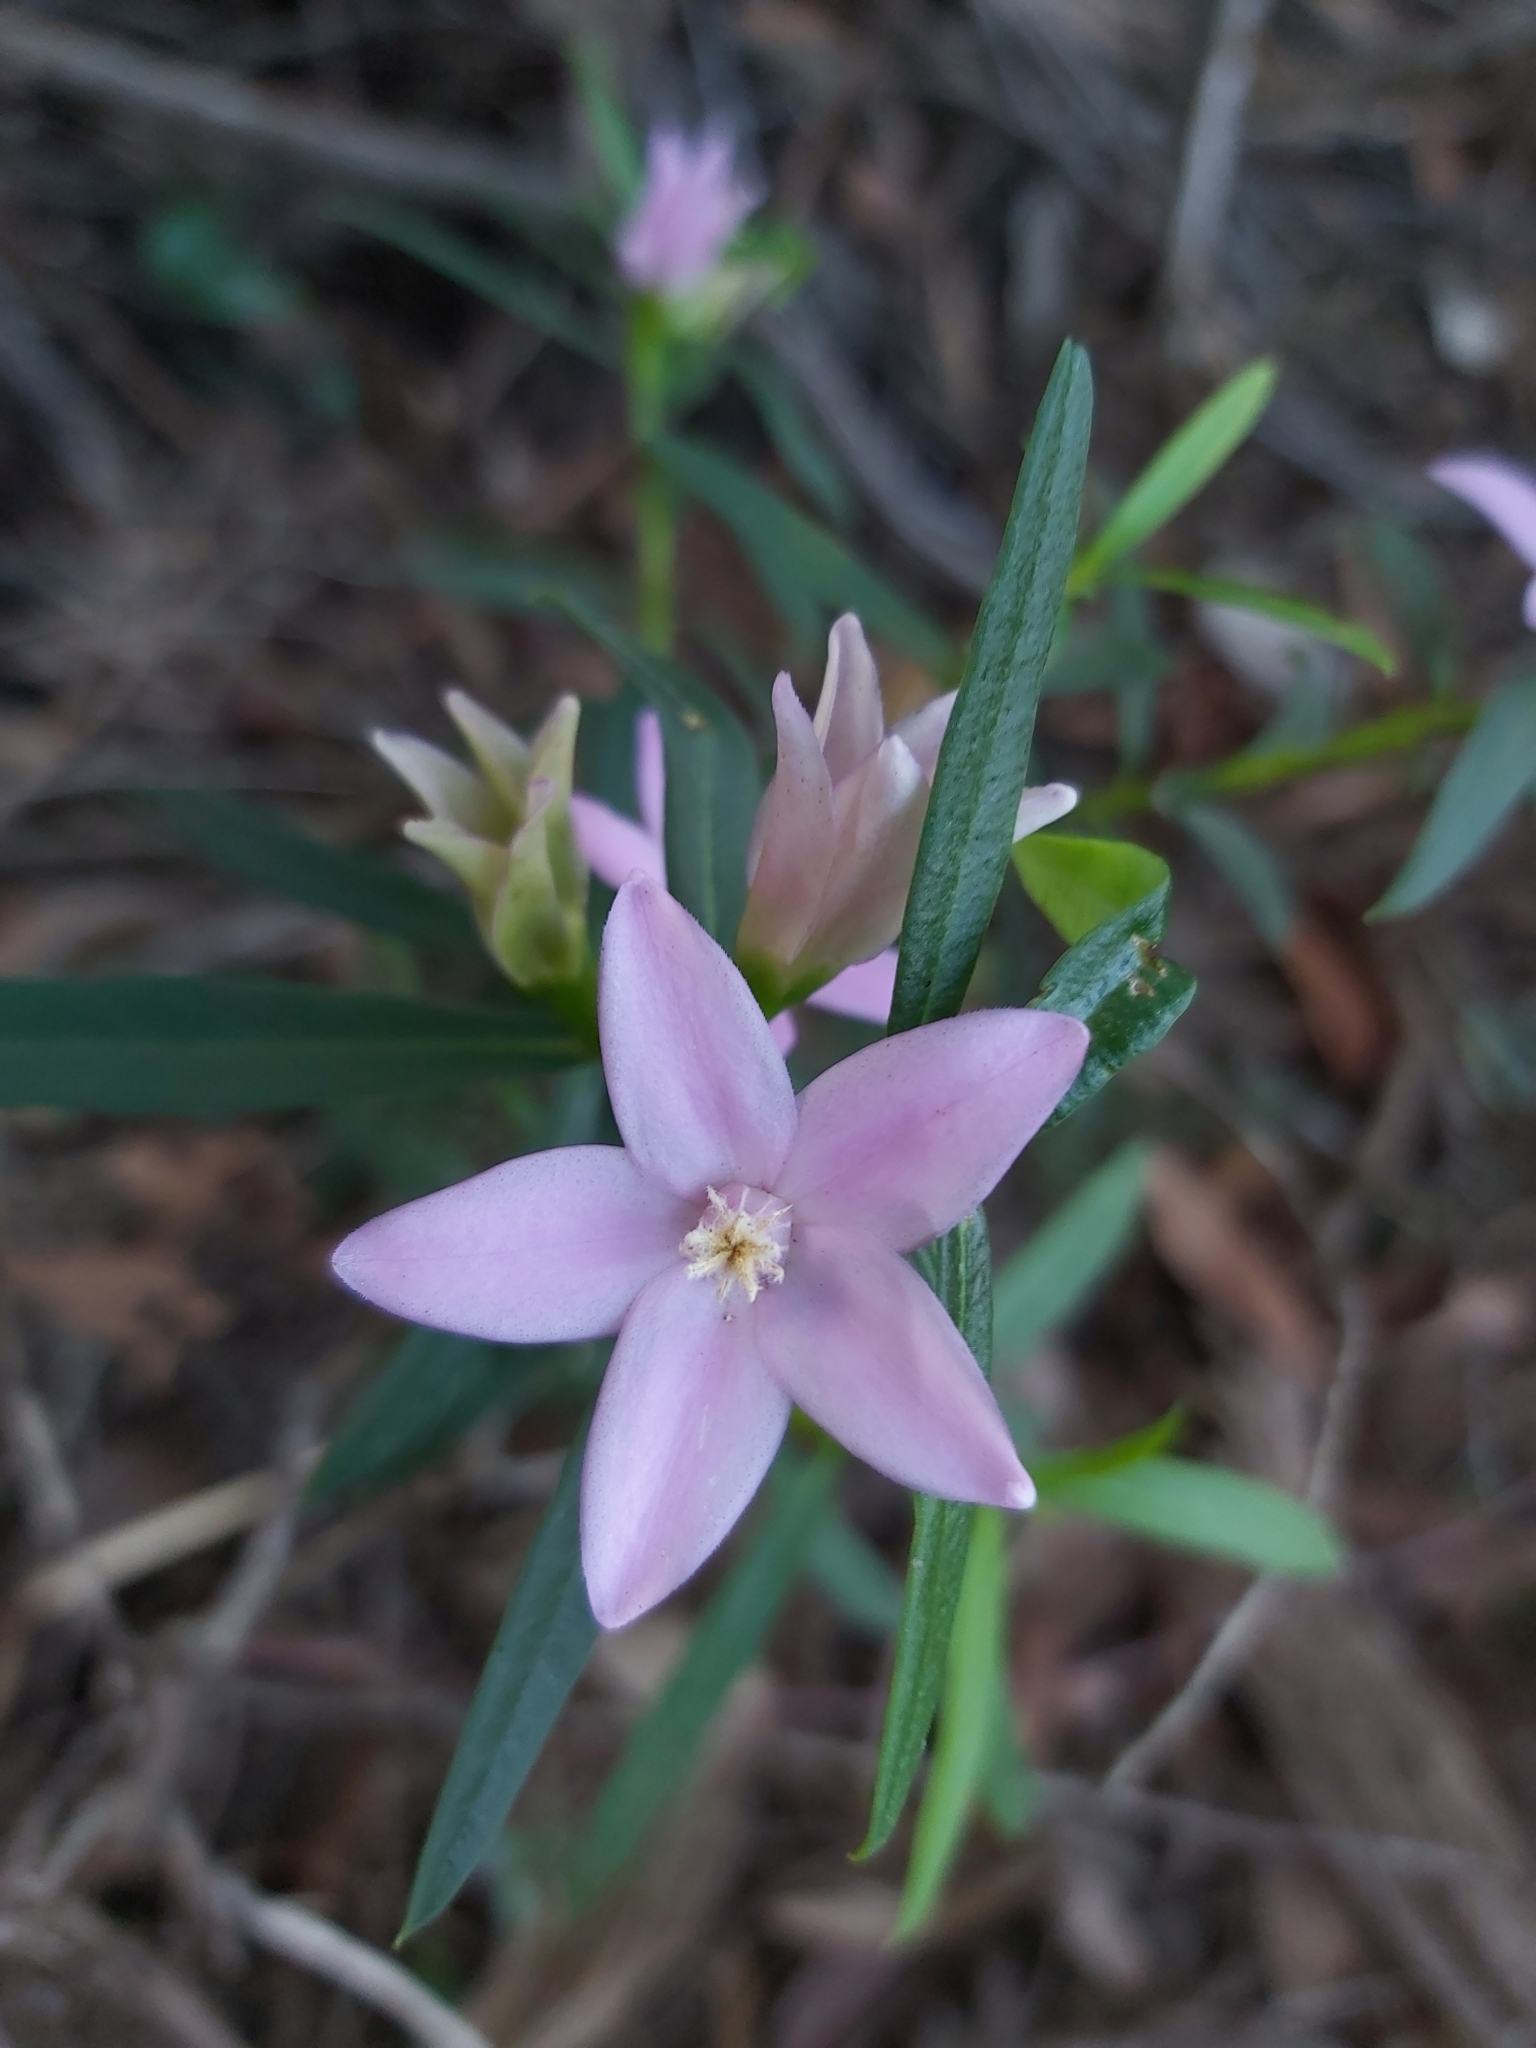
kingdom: Plantae
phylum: Tracheophyta
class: Magnoliopsida
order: Sapindales
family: Rutaceae
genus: Crowea
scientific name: Crowea saligna
